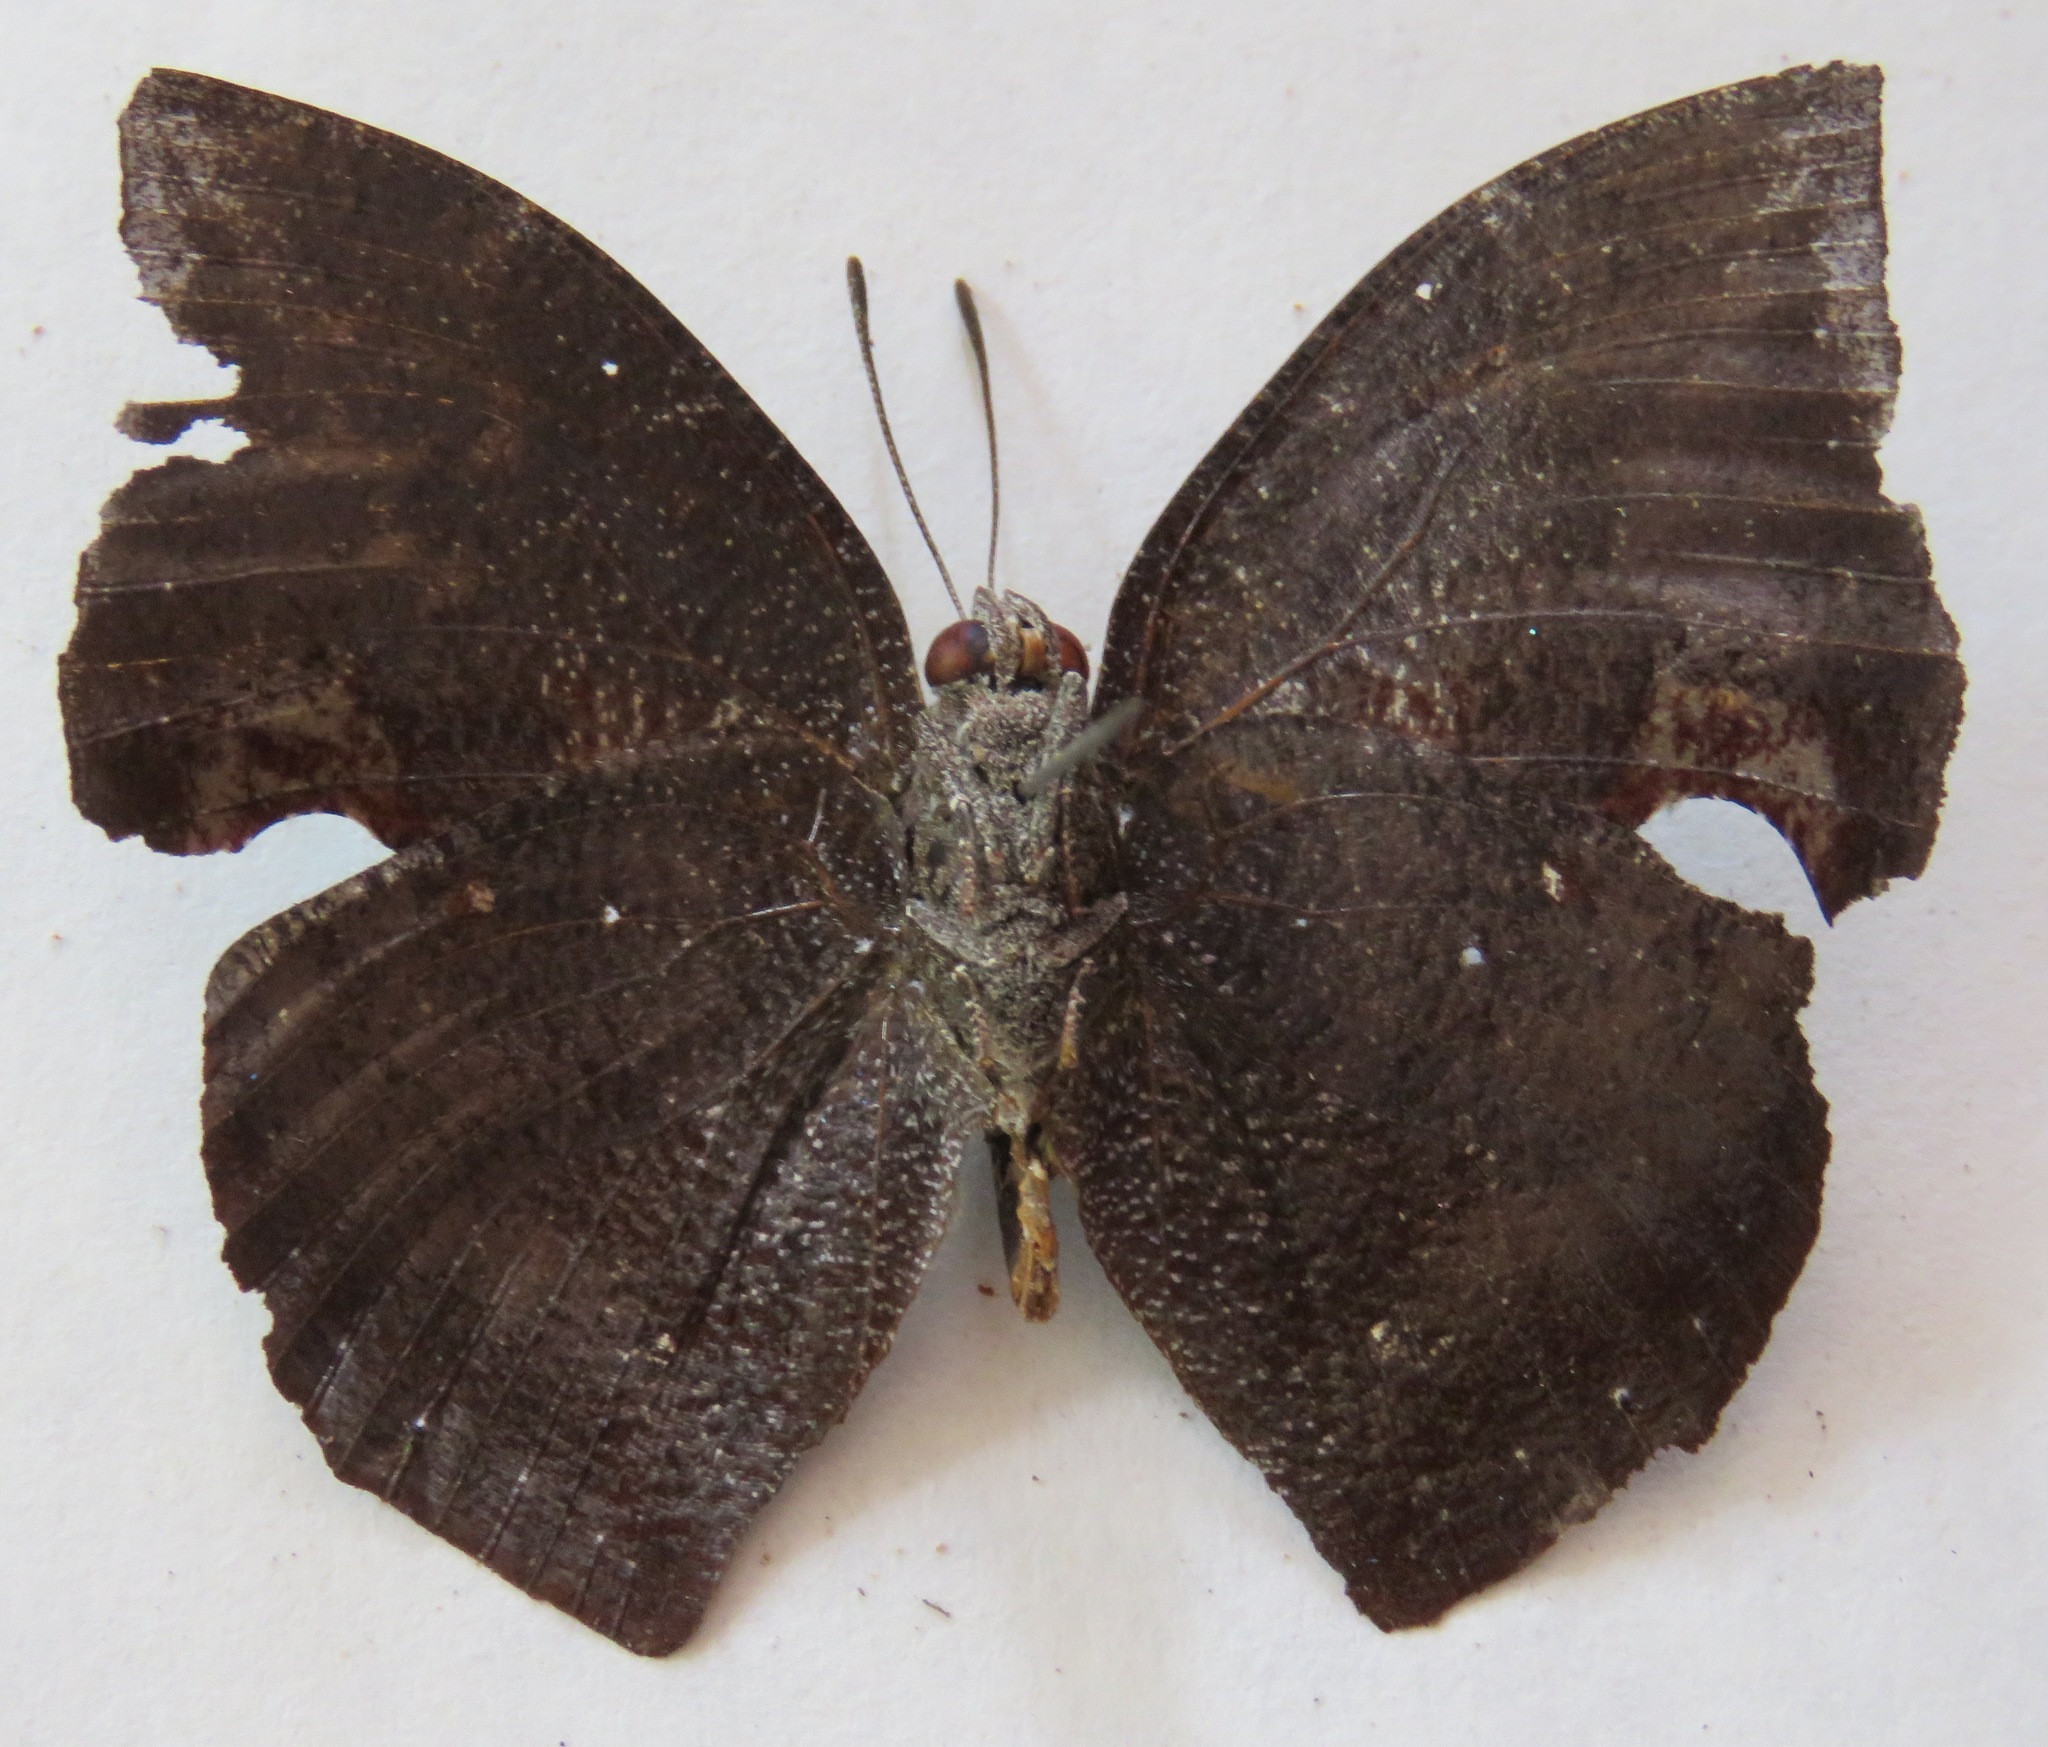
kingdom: Animalia
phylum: Arthropoda
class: Insecta
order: Lepidoptera
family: Nymphalidae
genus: Memphis
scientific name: Memphis moruus
